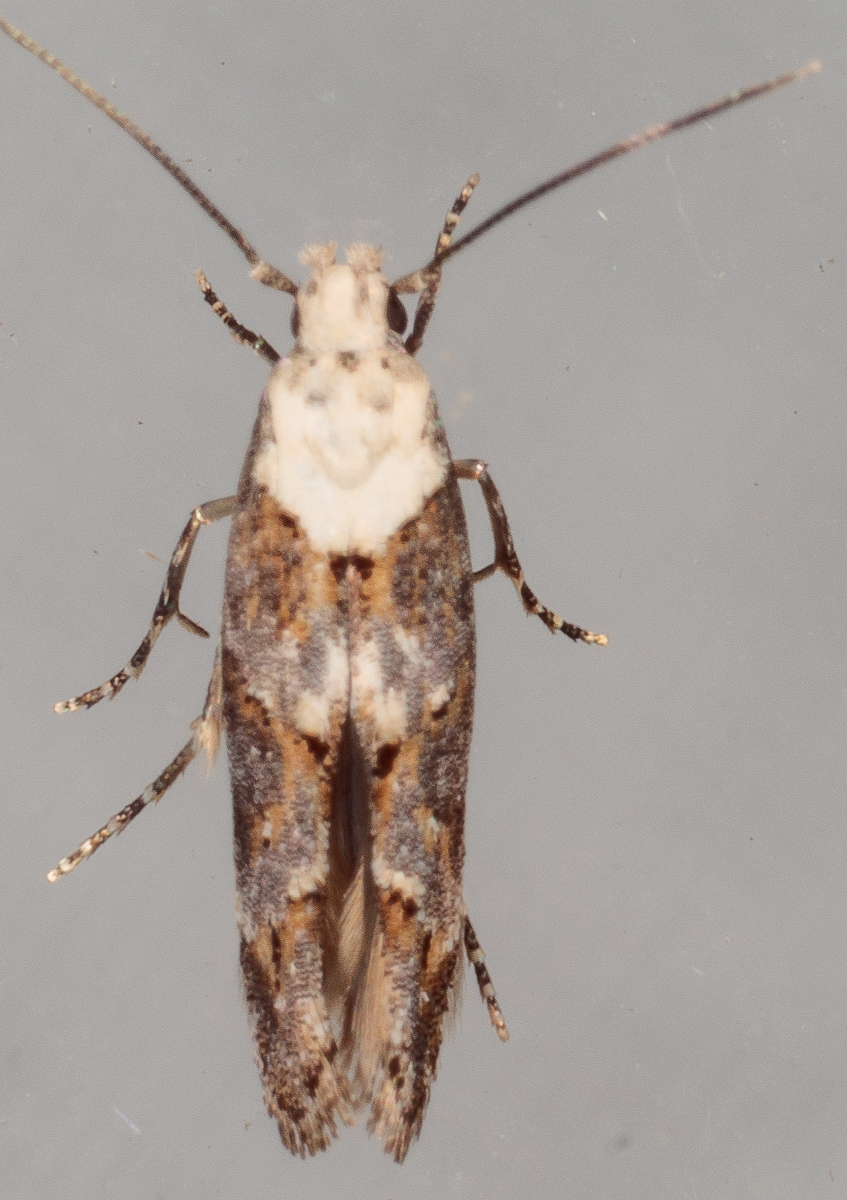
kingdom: Animalia
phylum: Arthropoda
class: Insecta
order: Lepidoptera
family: Momphidae
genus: Mompha
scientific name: Mompha albocapitella
